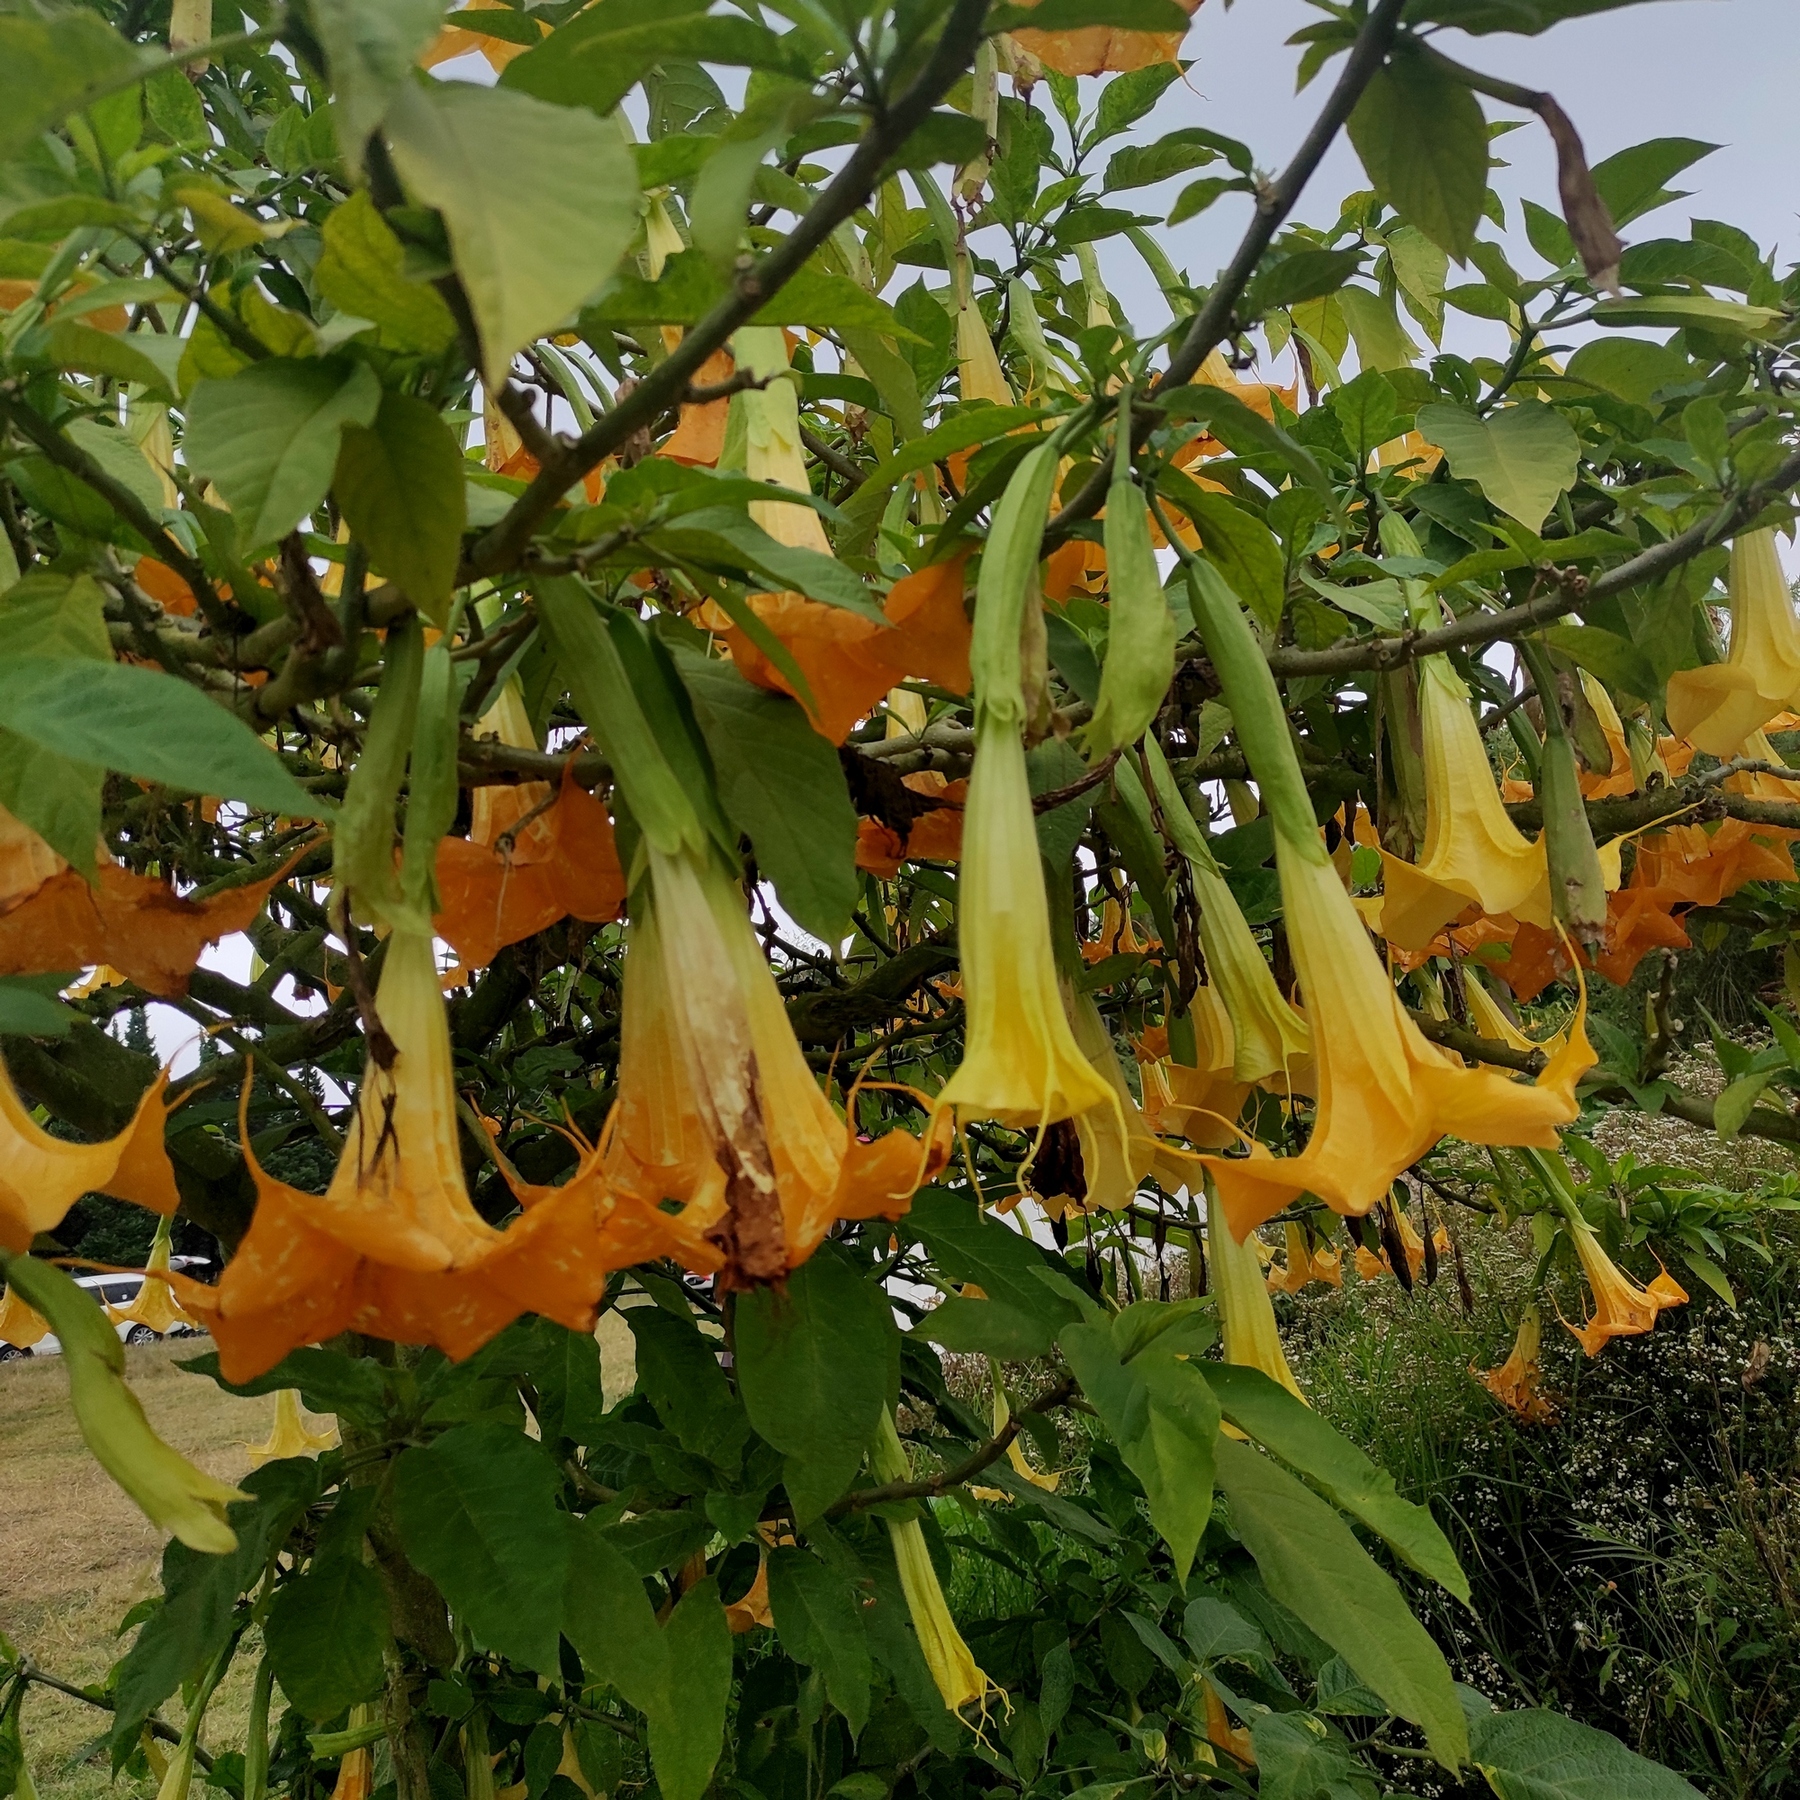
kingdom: Plantae
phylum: Tracheophyta
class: Magnoliopsida
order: Solanales
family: Solanaceae
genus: Brugmansia
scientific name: Brugmansia suaveolens
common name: Angel's tears
